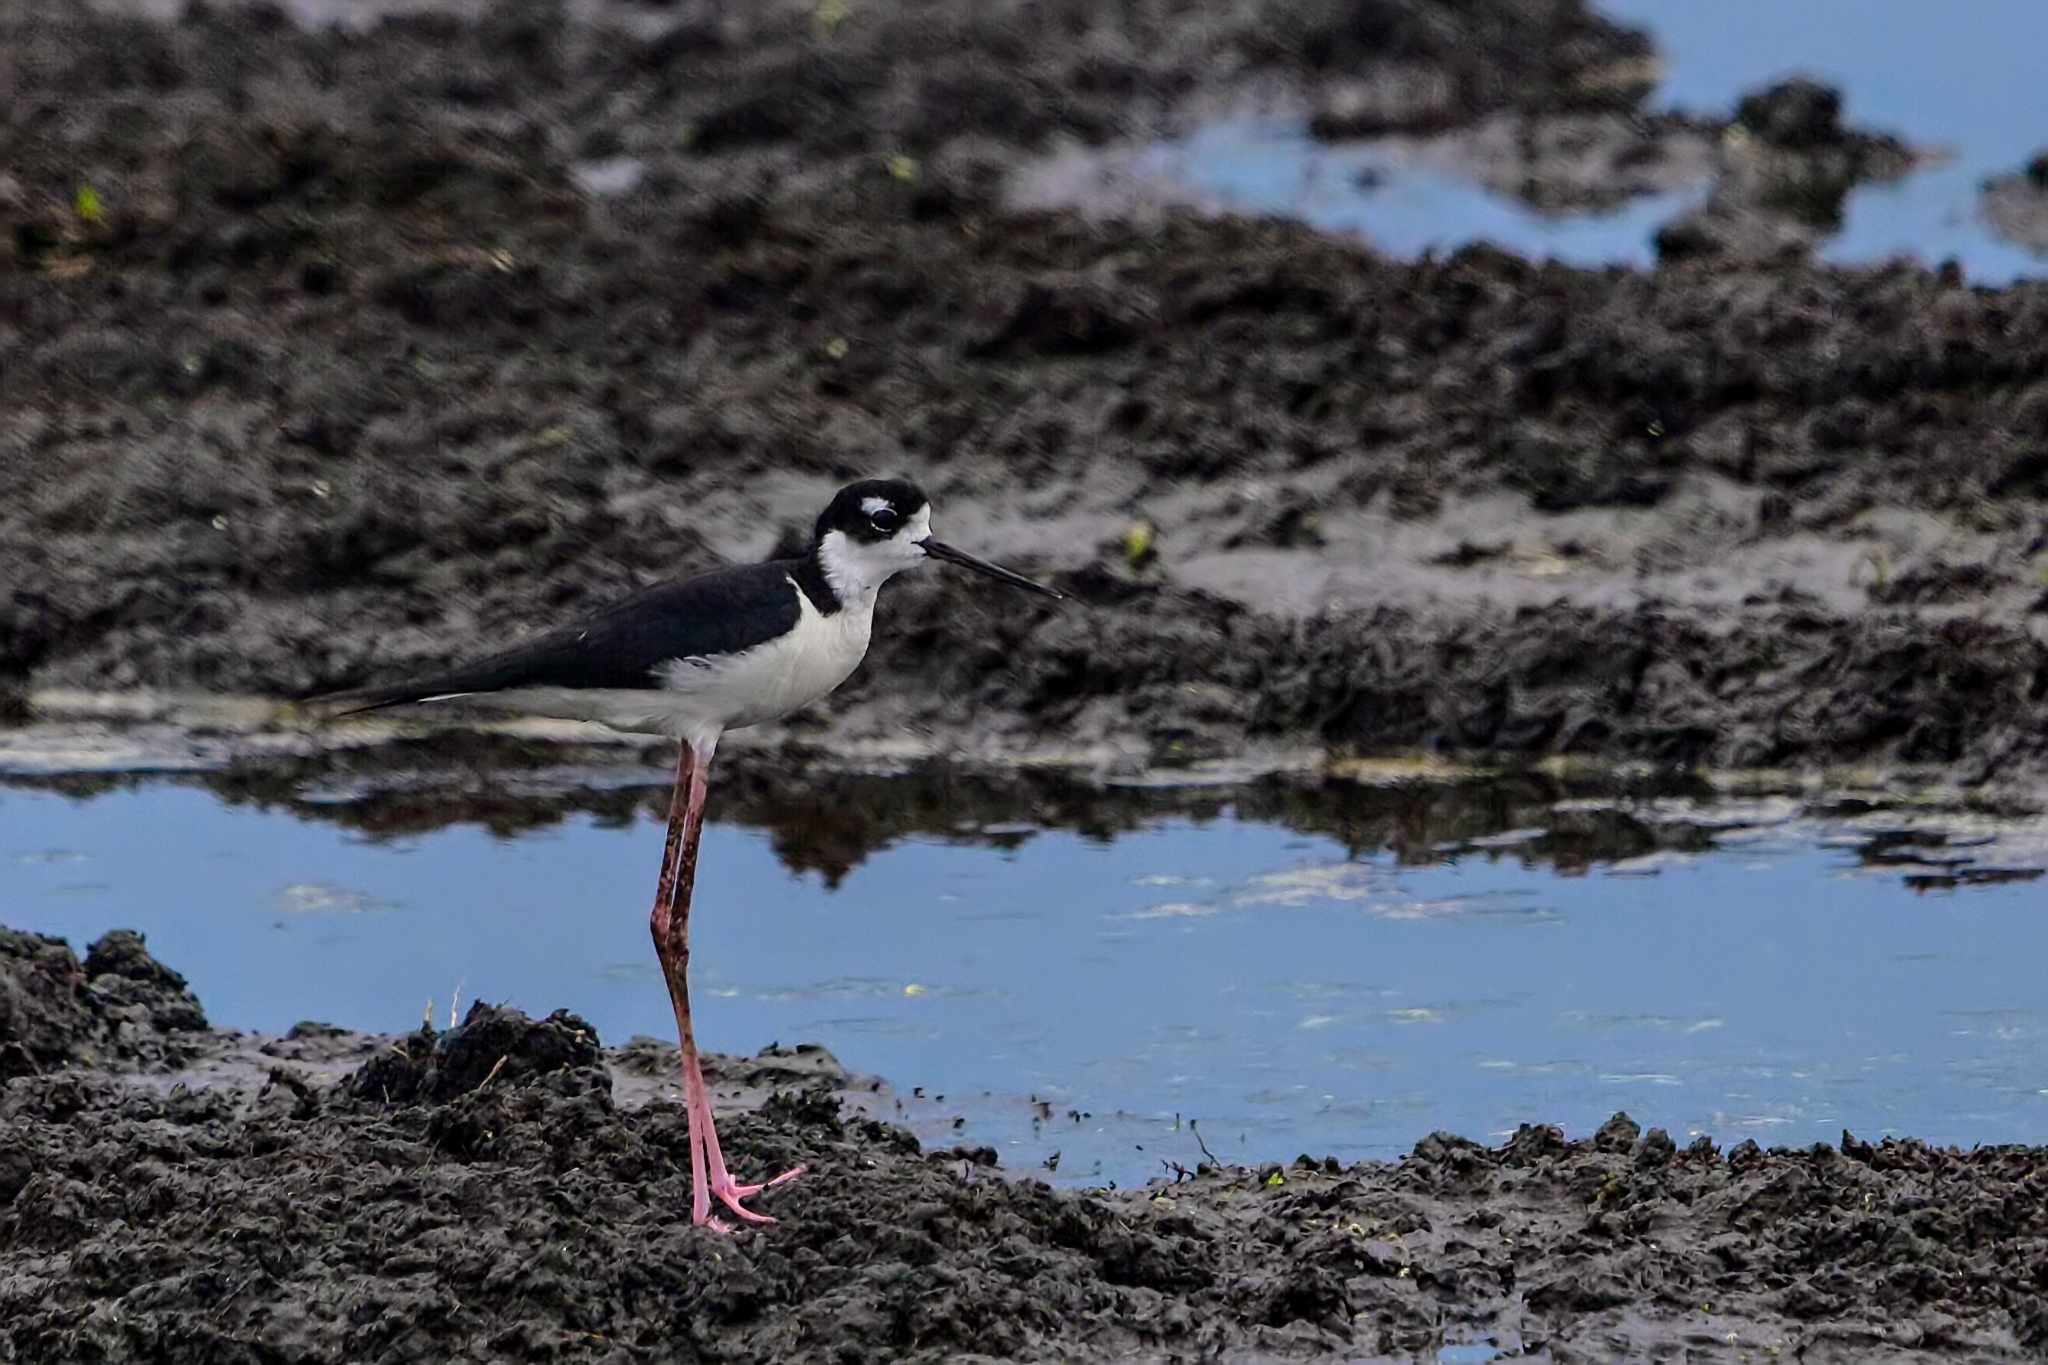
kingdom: Animalia
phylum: Chordata
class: Aves
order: Charadriiformes
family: Recurvirostridae
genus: Himantopus
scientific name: Himantopus mexicanus
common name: Black-necked stilt
